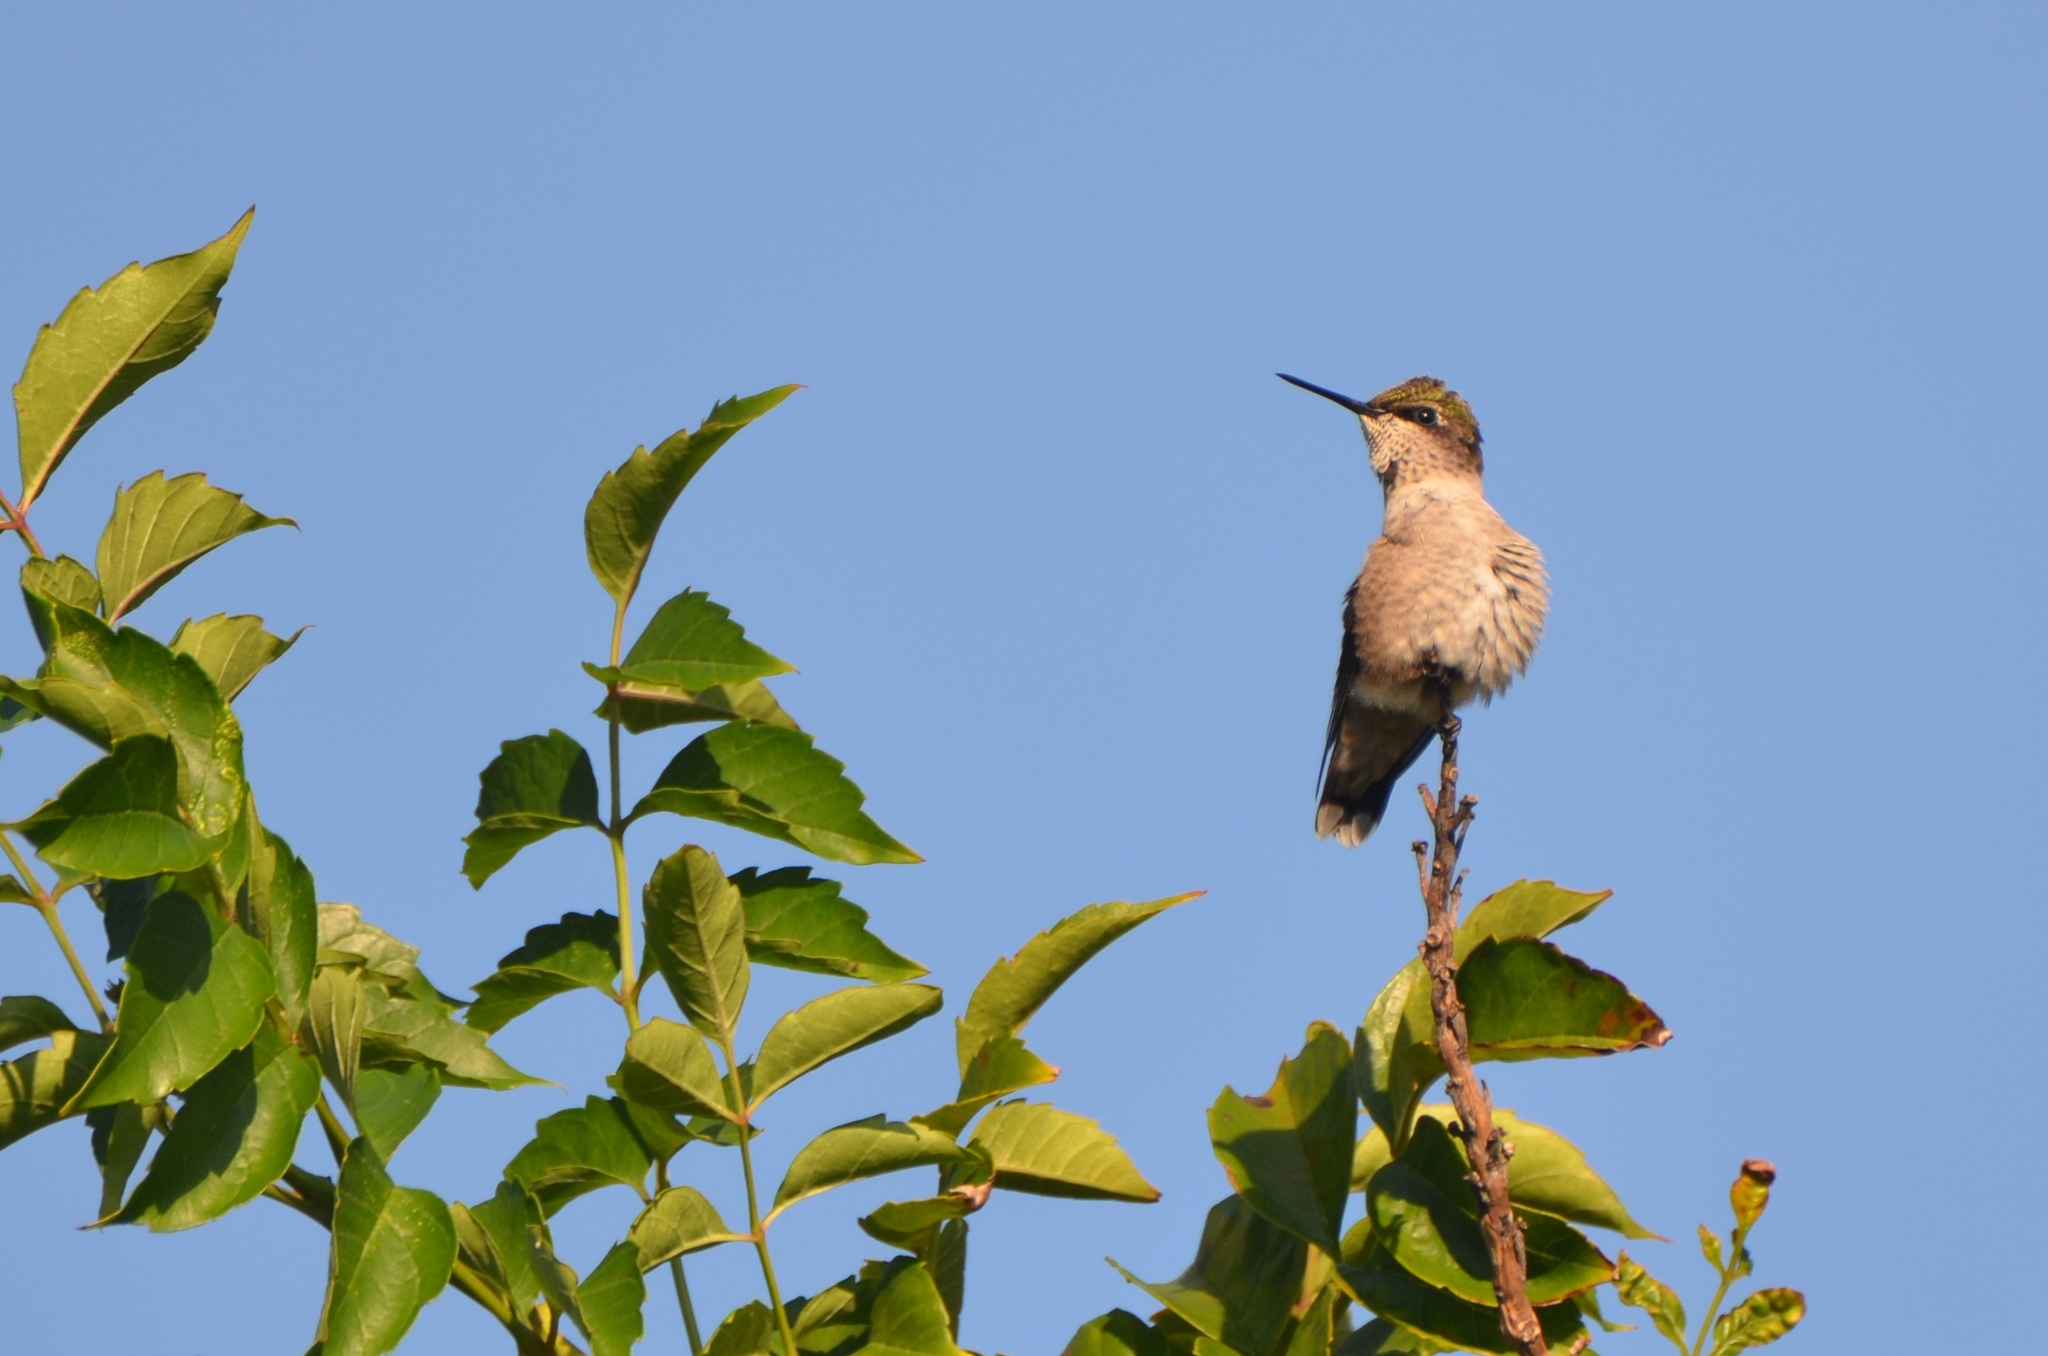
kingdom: Animalia
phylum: Chordata
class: Aves
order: Apodiformes
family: Trochilidae
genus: Archilochus
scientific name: Archilochus colubris
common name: Ruby-throated hummingbird
